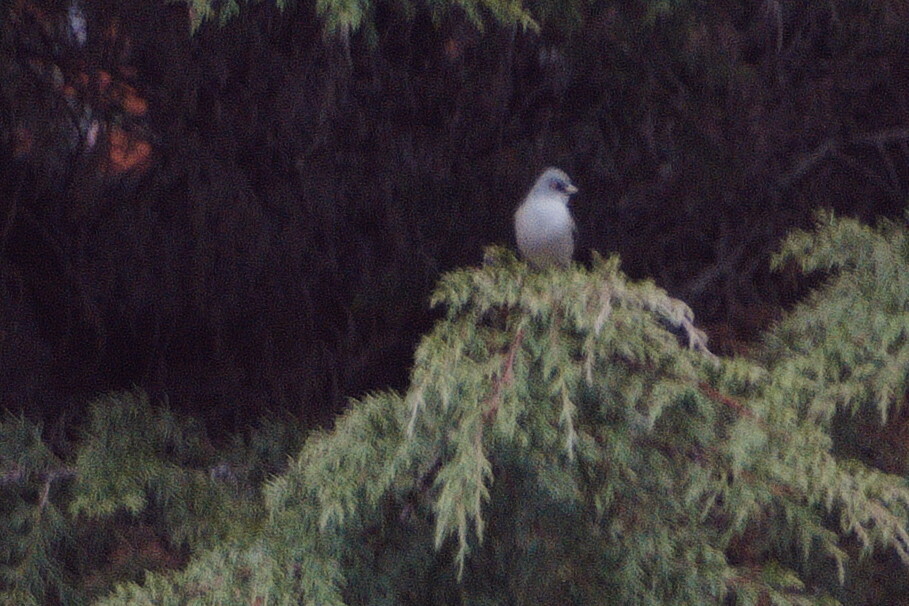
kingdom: Animalia
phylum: Chordata
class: Aves
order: Passeriformes
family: Passerellidae
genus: Junco
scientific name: Junco phaeonotus
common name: Yellow-eyed junco
